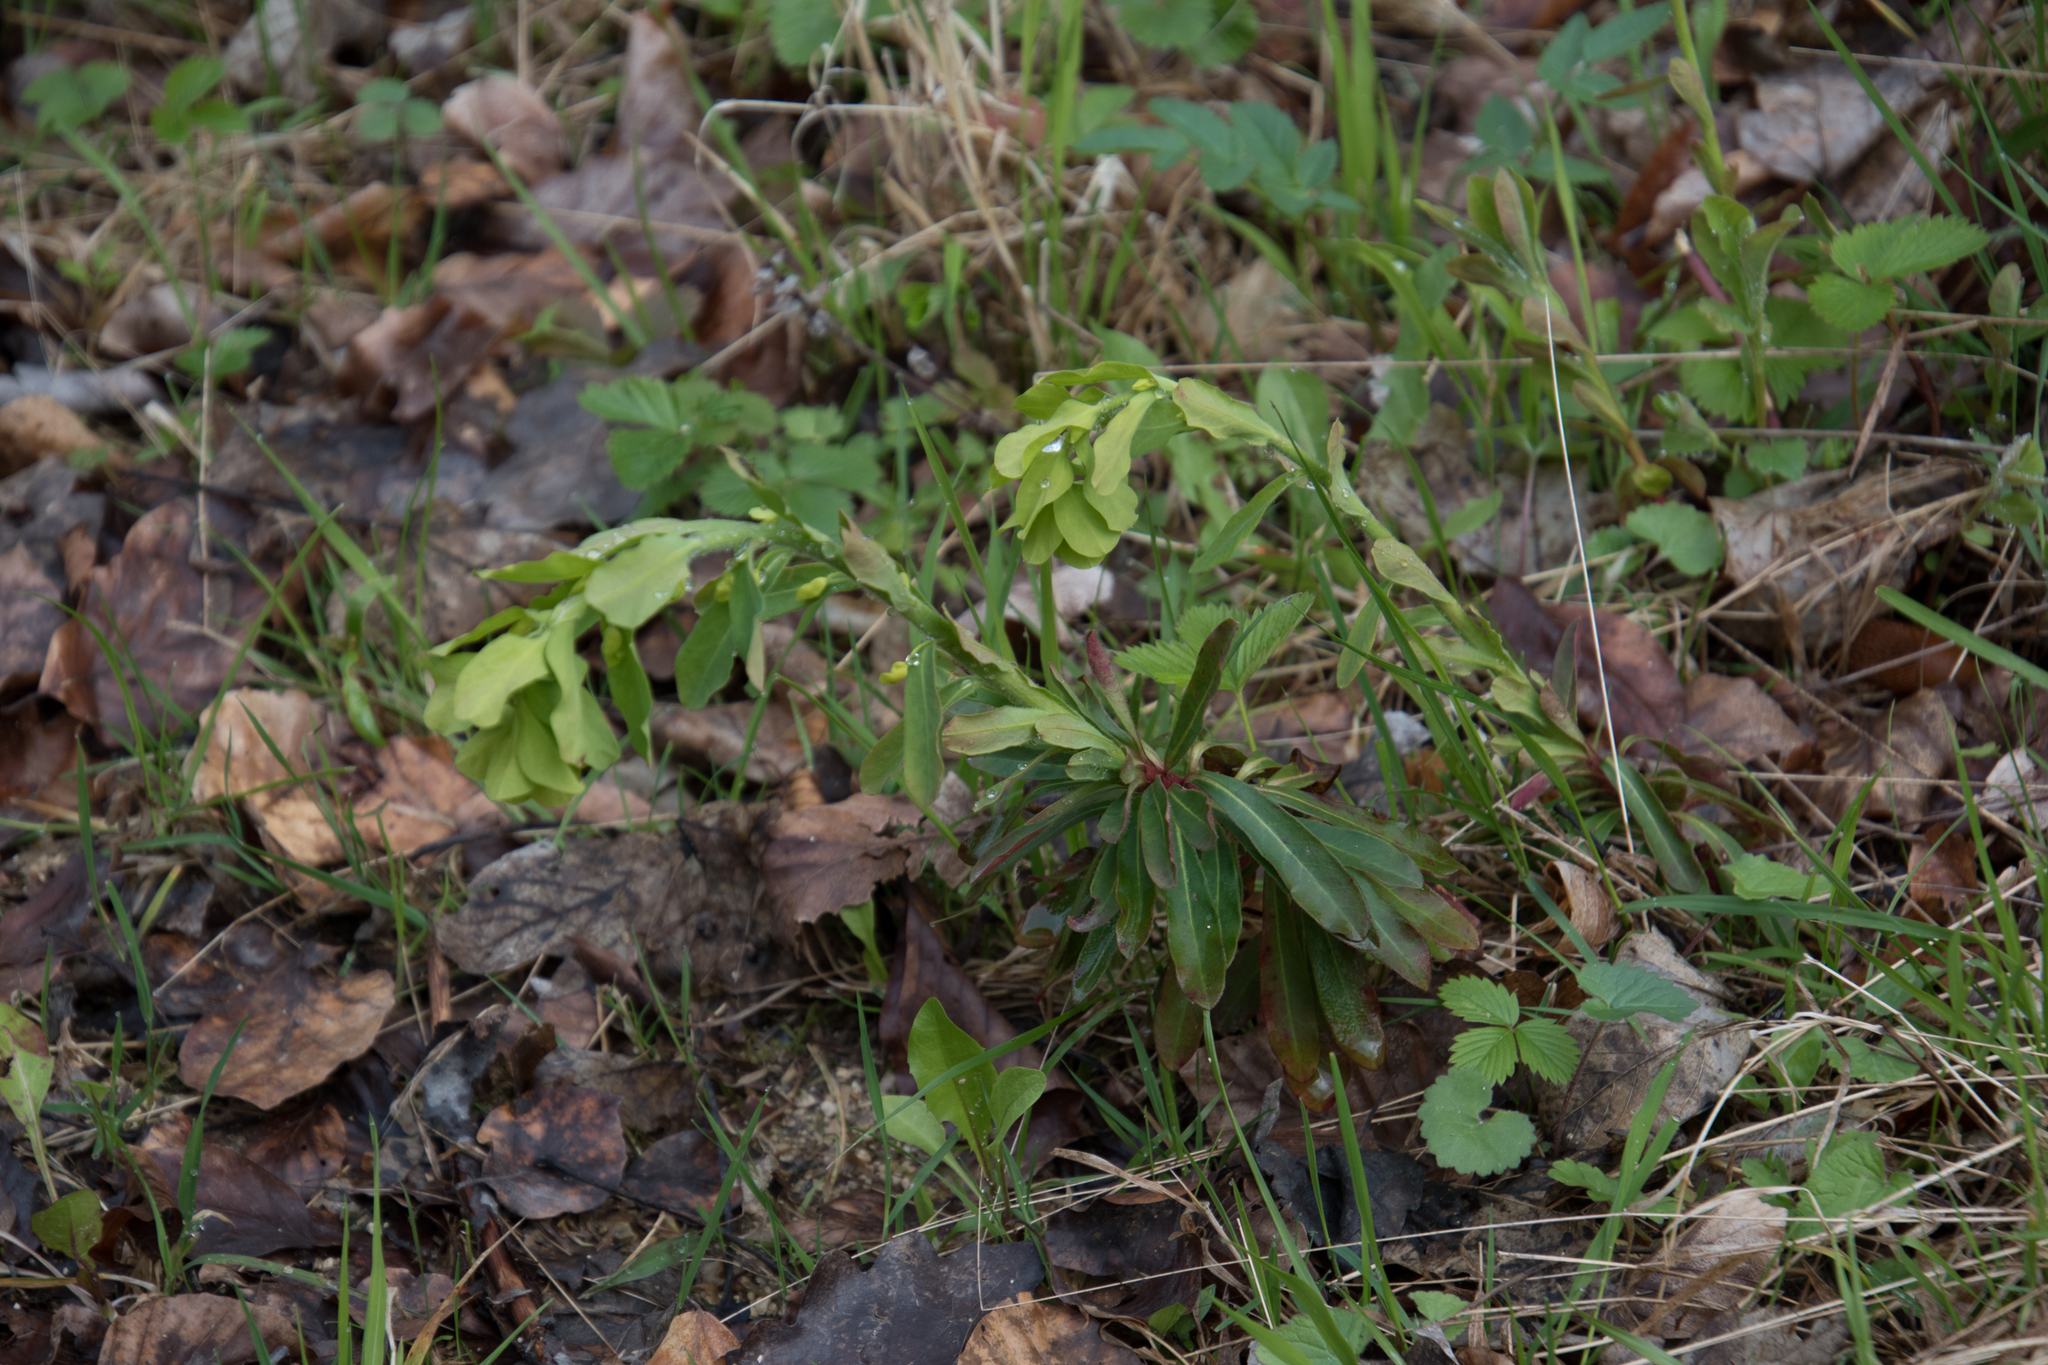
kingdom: Plantae
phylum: Tracheophyta
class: Magnoliopsida
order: Malpighiales
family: Euphorbiaceae
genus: Euphorbia
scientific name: Euphorbia amygdaloides
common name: Wood spurge
